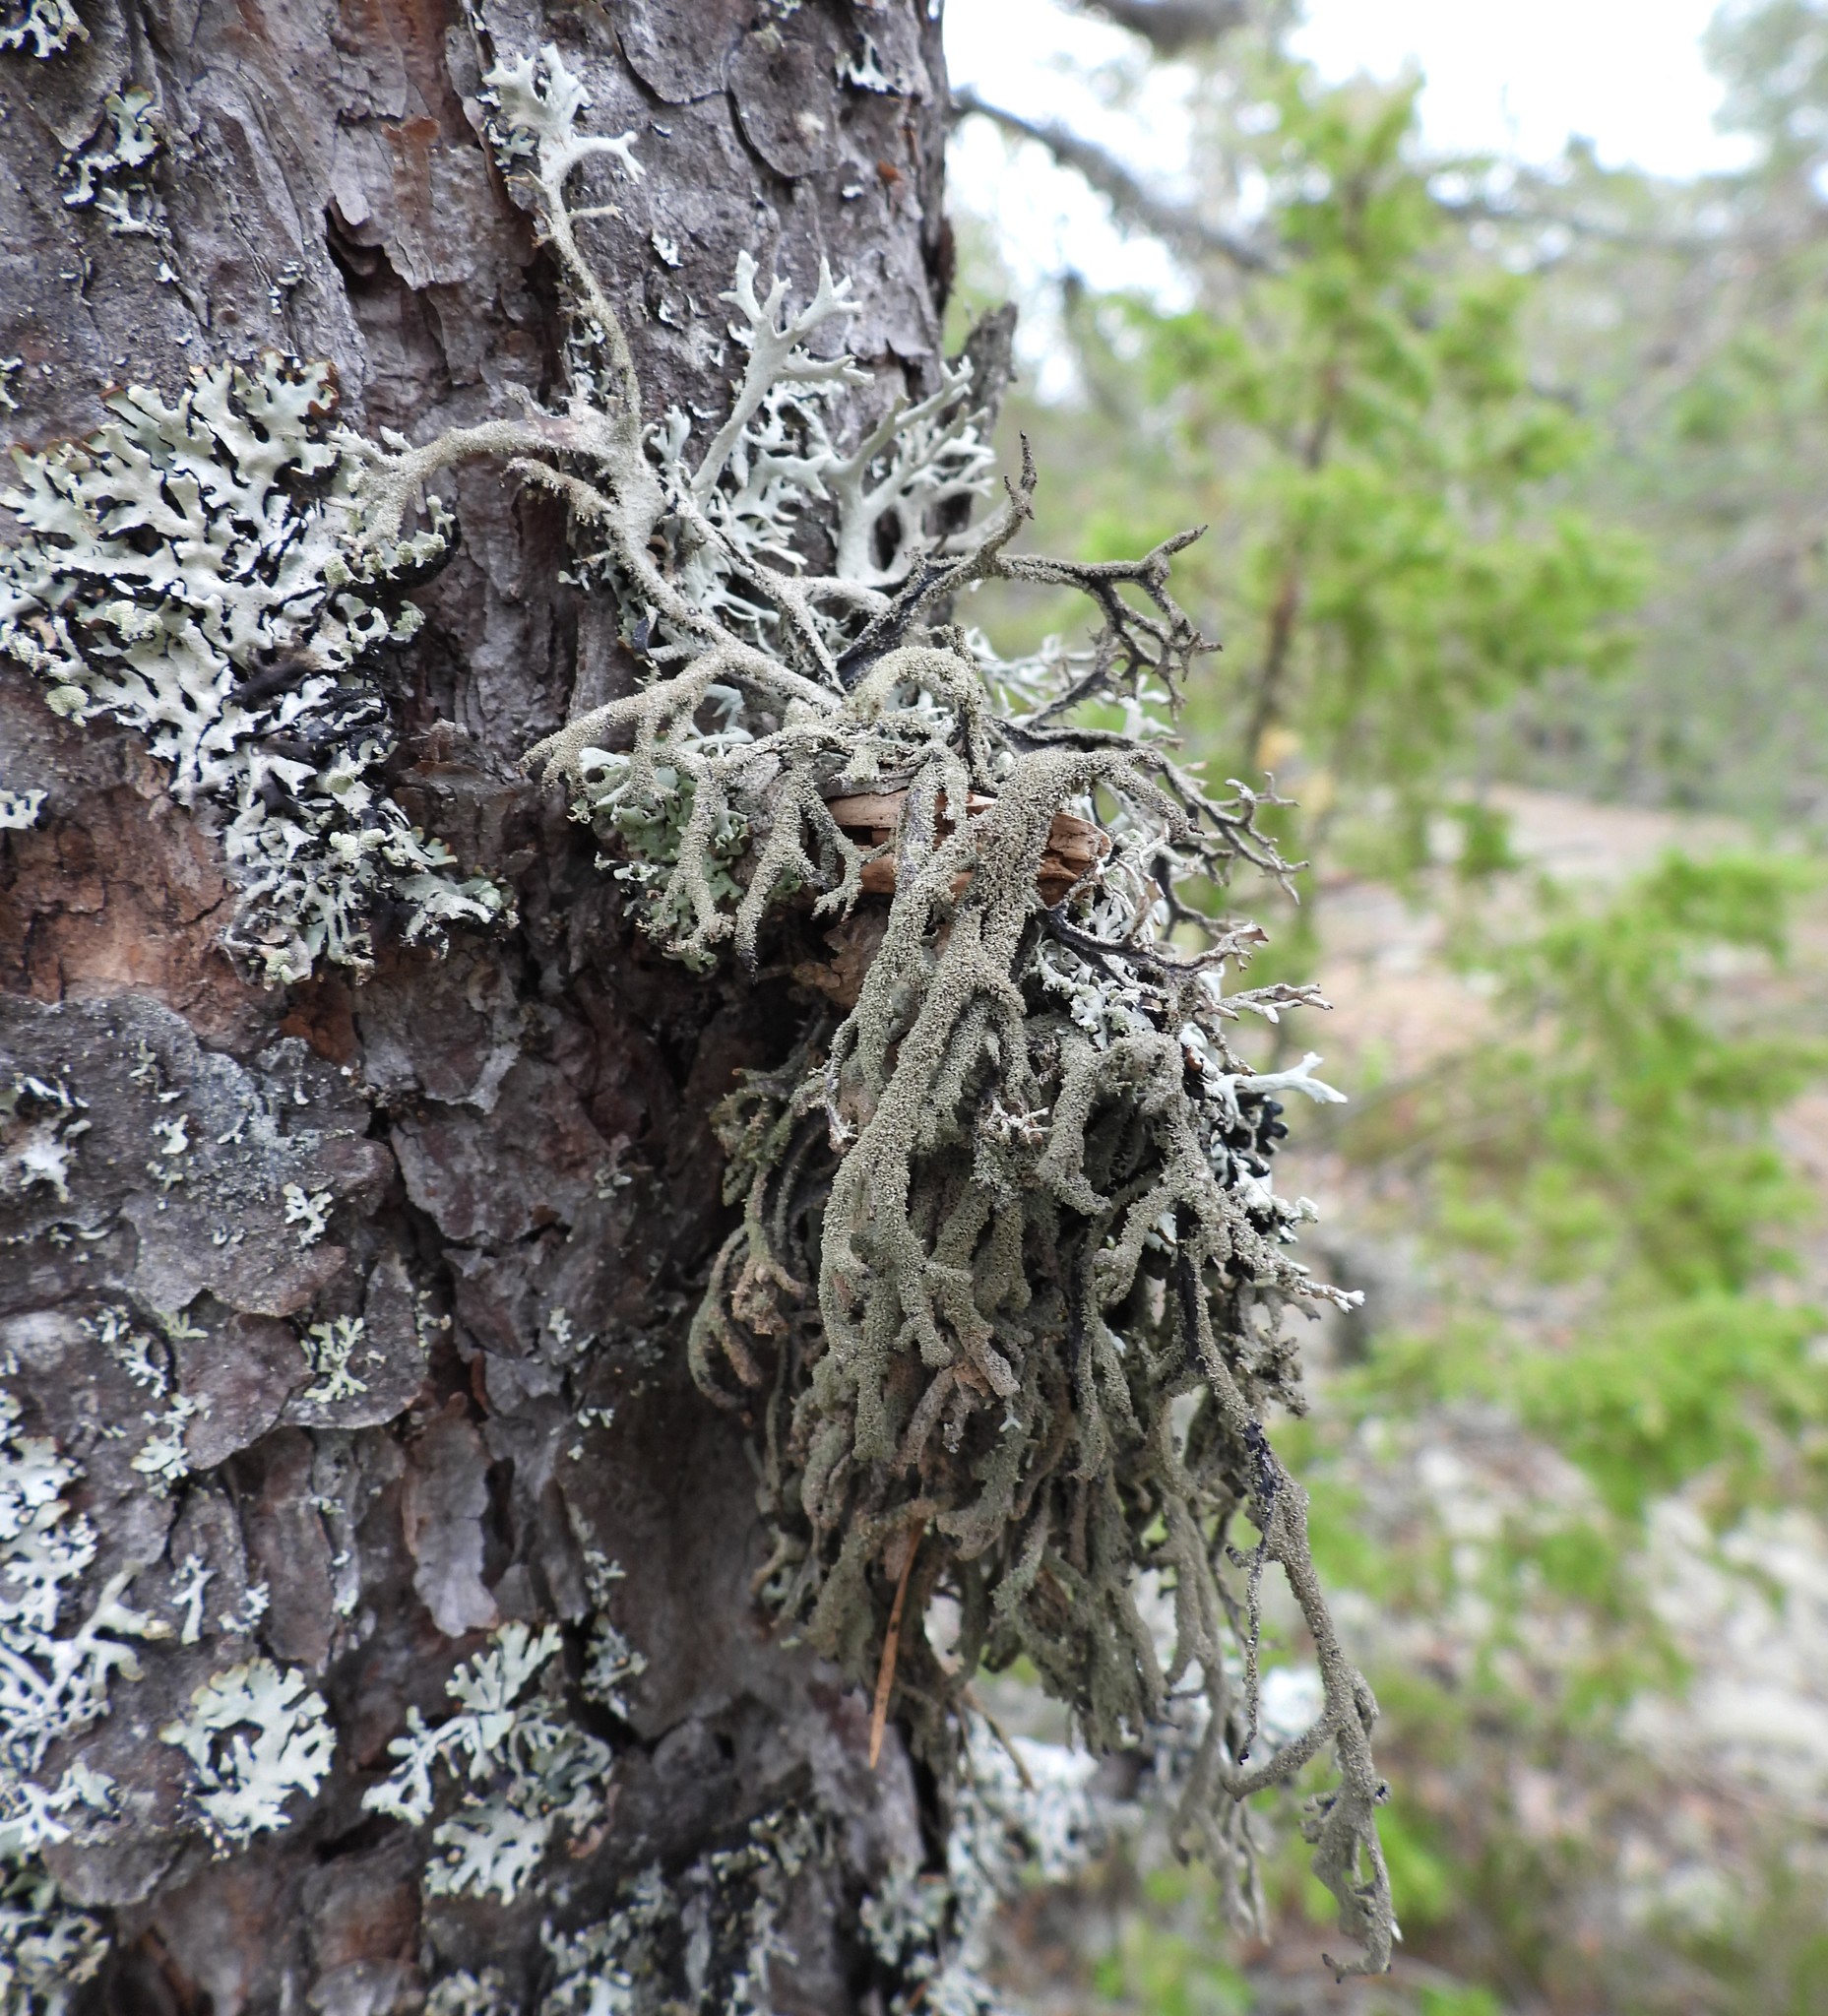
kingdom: Fungi
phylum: Ascomycota
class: Lecanoromycetes
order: Lecanorales
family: Parmeliaceae
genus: Pseudevernia
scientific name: Pseudevernia furfuracea
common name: Tree moss
